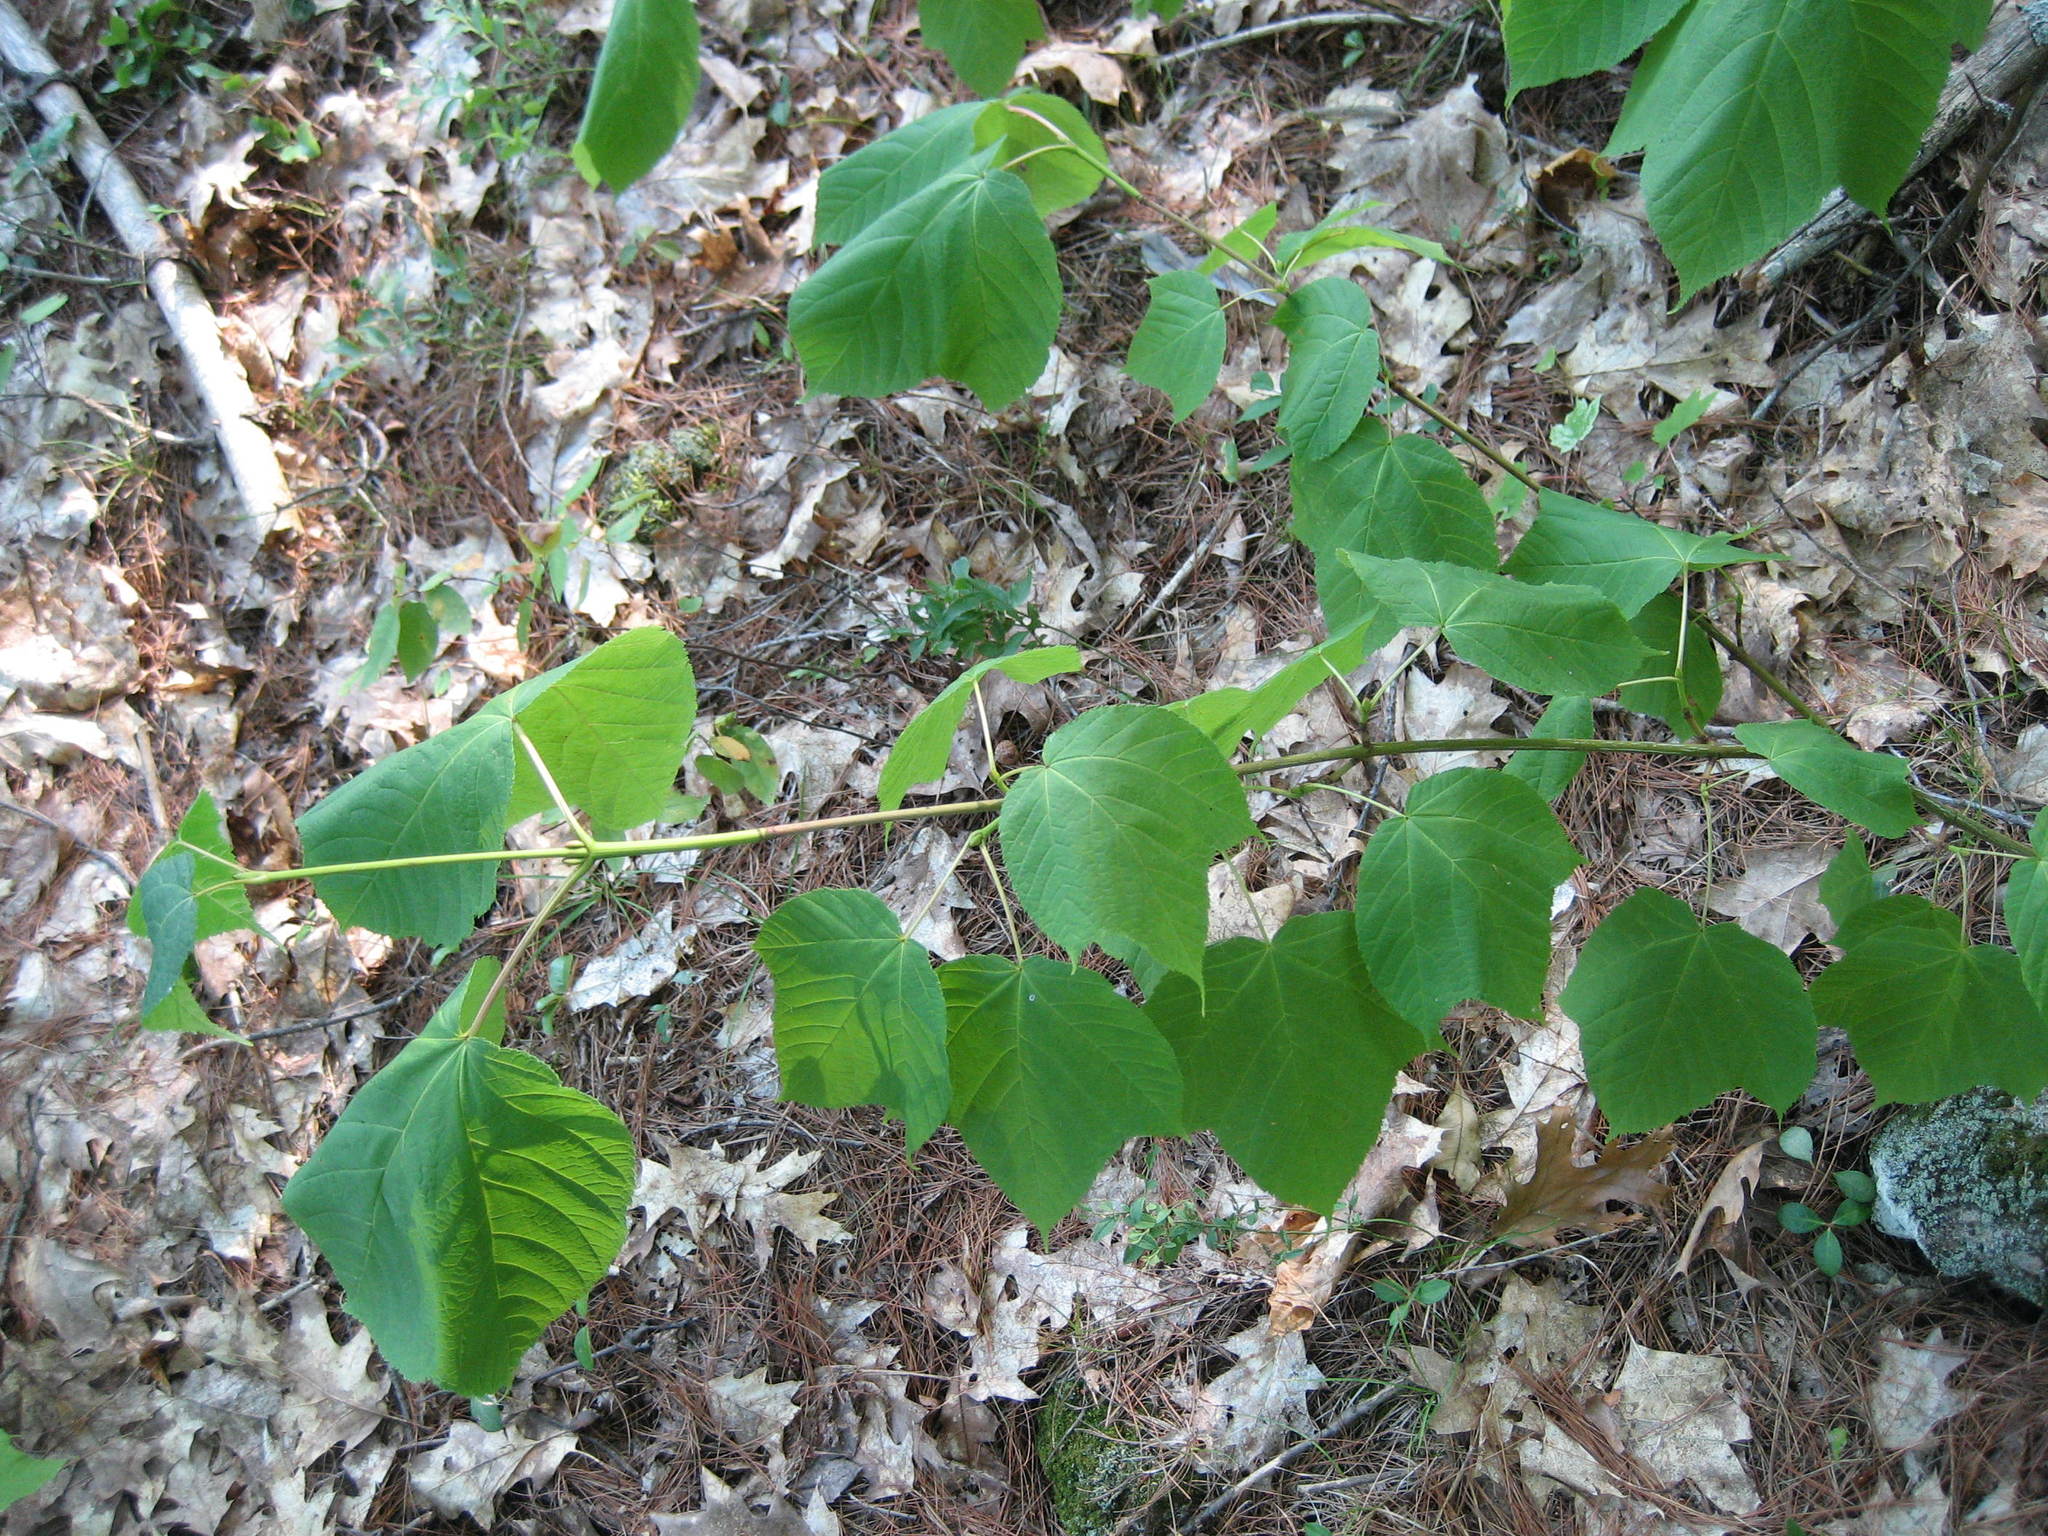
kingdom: Plantae
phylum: Tracheophyta
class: Magnoliopsida
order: Sapindales
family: Sapindaceae
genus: Acer
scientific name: Acer pensylvanicum
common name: Moosewood
